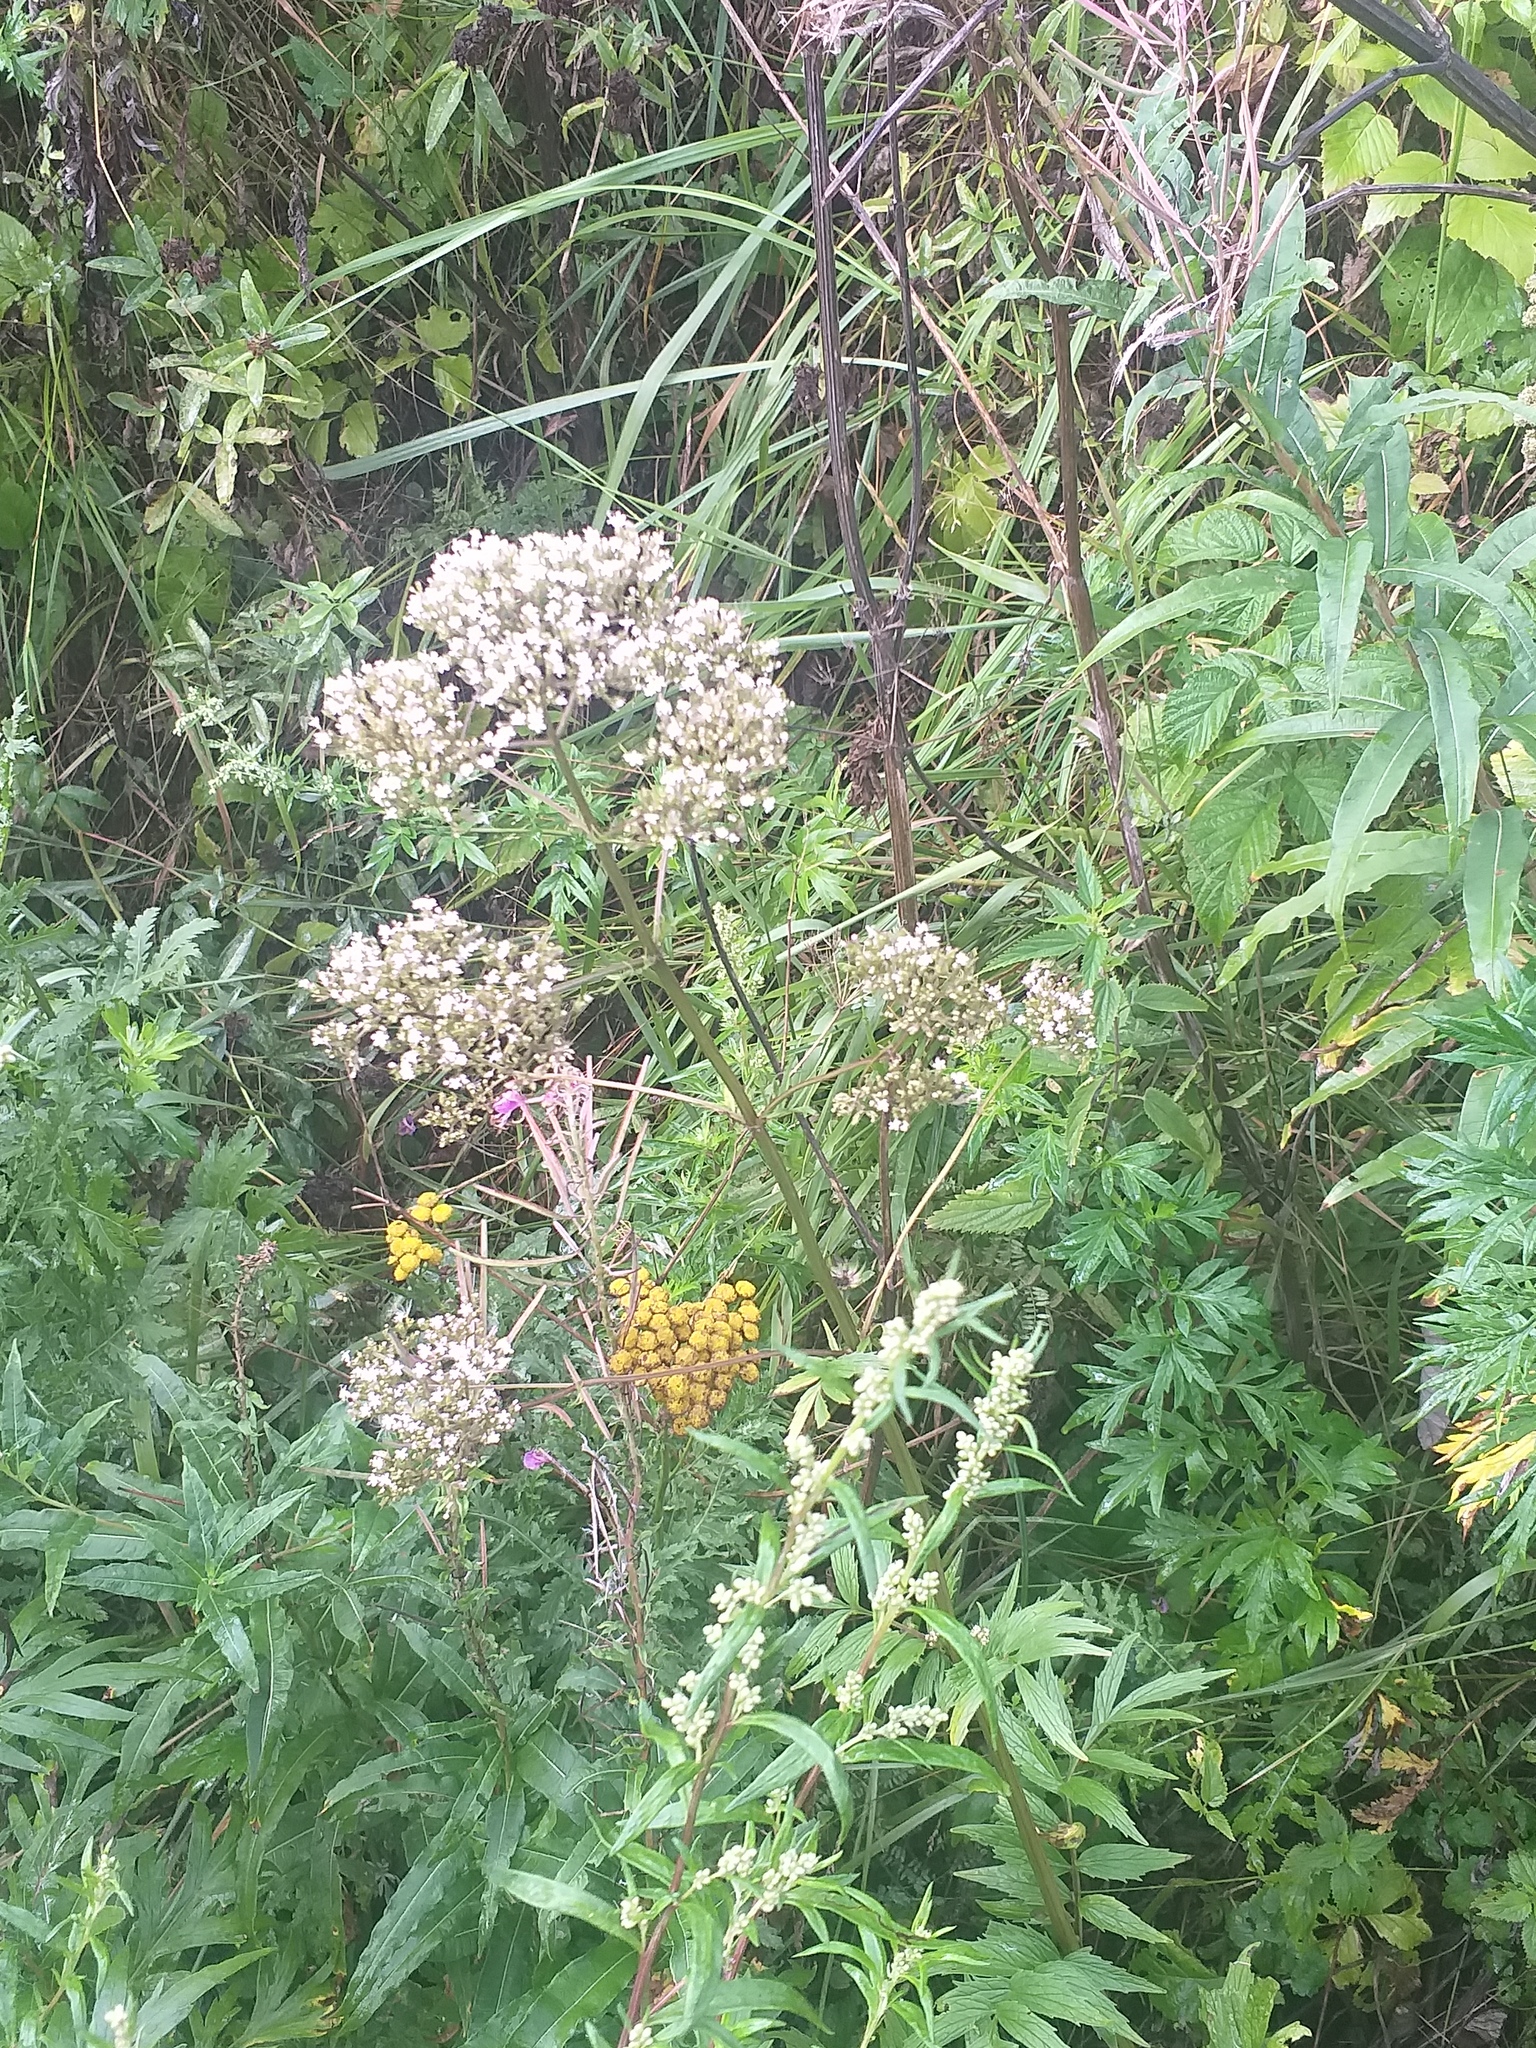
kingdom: Plantae
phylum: Tracheophyta
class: Magnoliopsida
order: Dipsacales
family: Caprifoliaceae
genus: Valeriana
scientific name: Valeriana officinalis
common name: Common valerian
